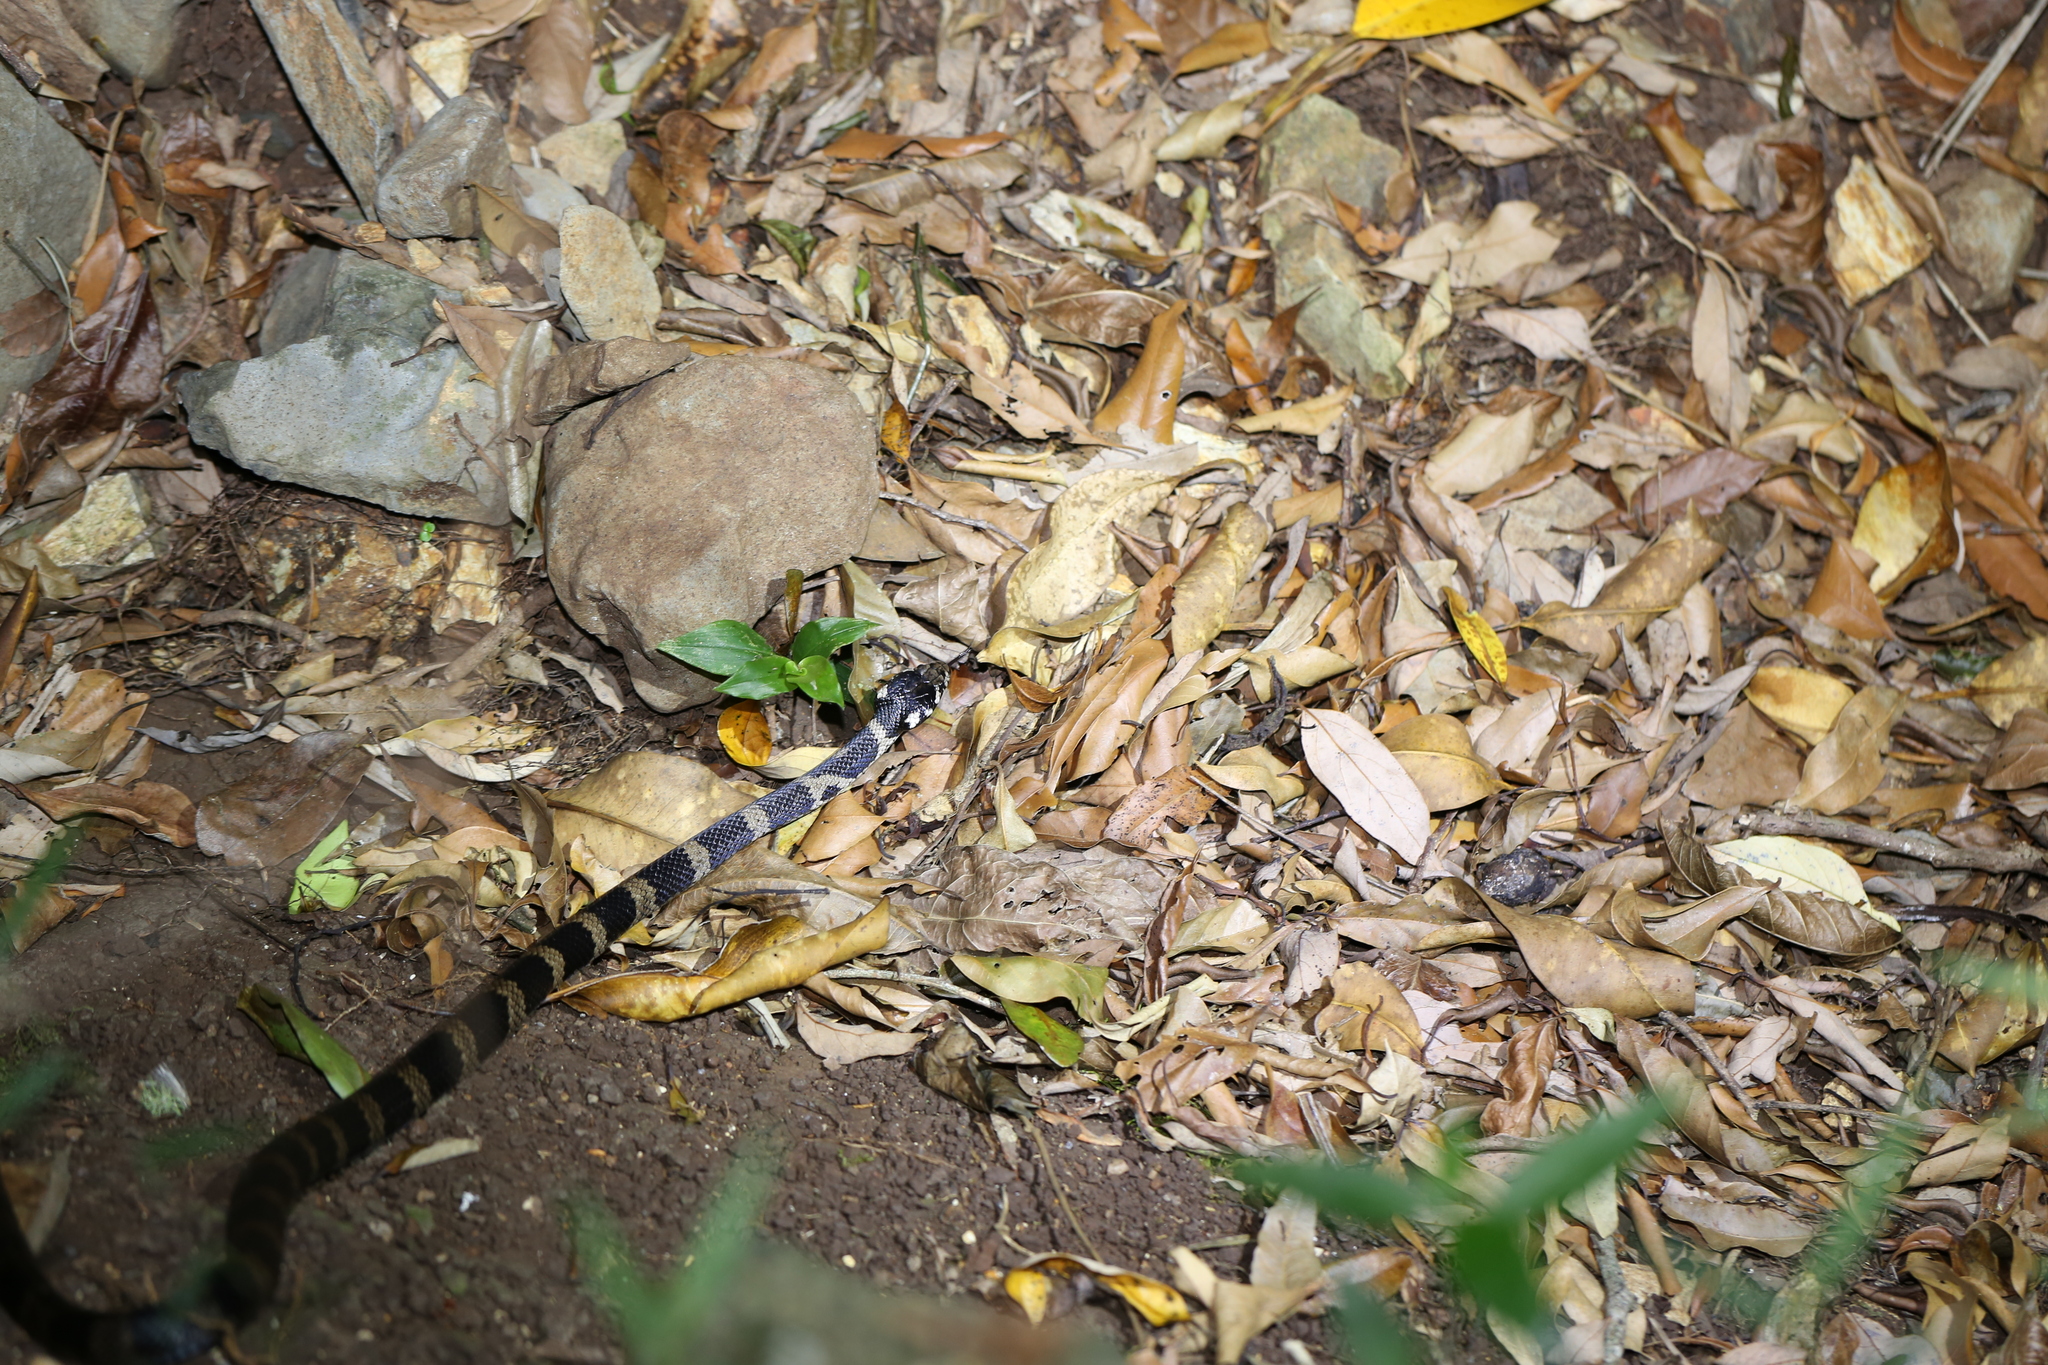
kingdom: Animalia
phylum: Chordata
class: Squamata
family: Elapidae
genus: Hoplocephalus
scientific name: Hoplocephalus stephensii
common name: Stephen's banded snake
